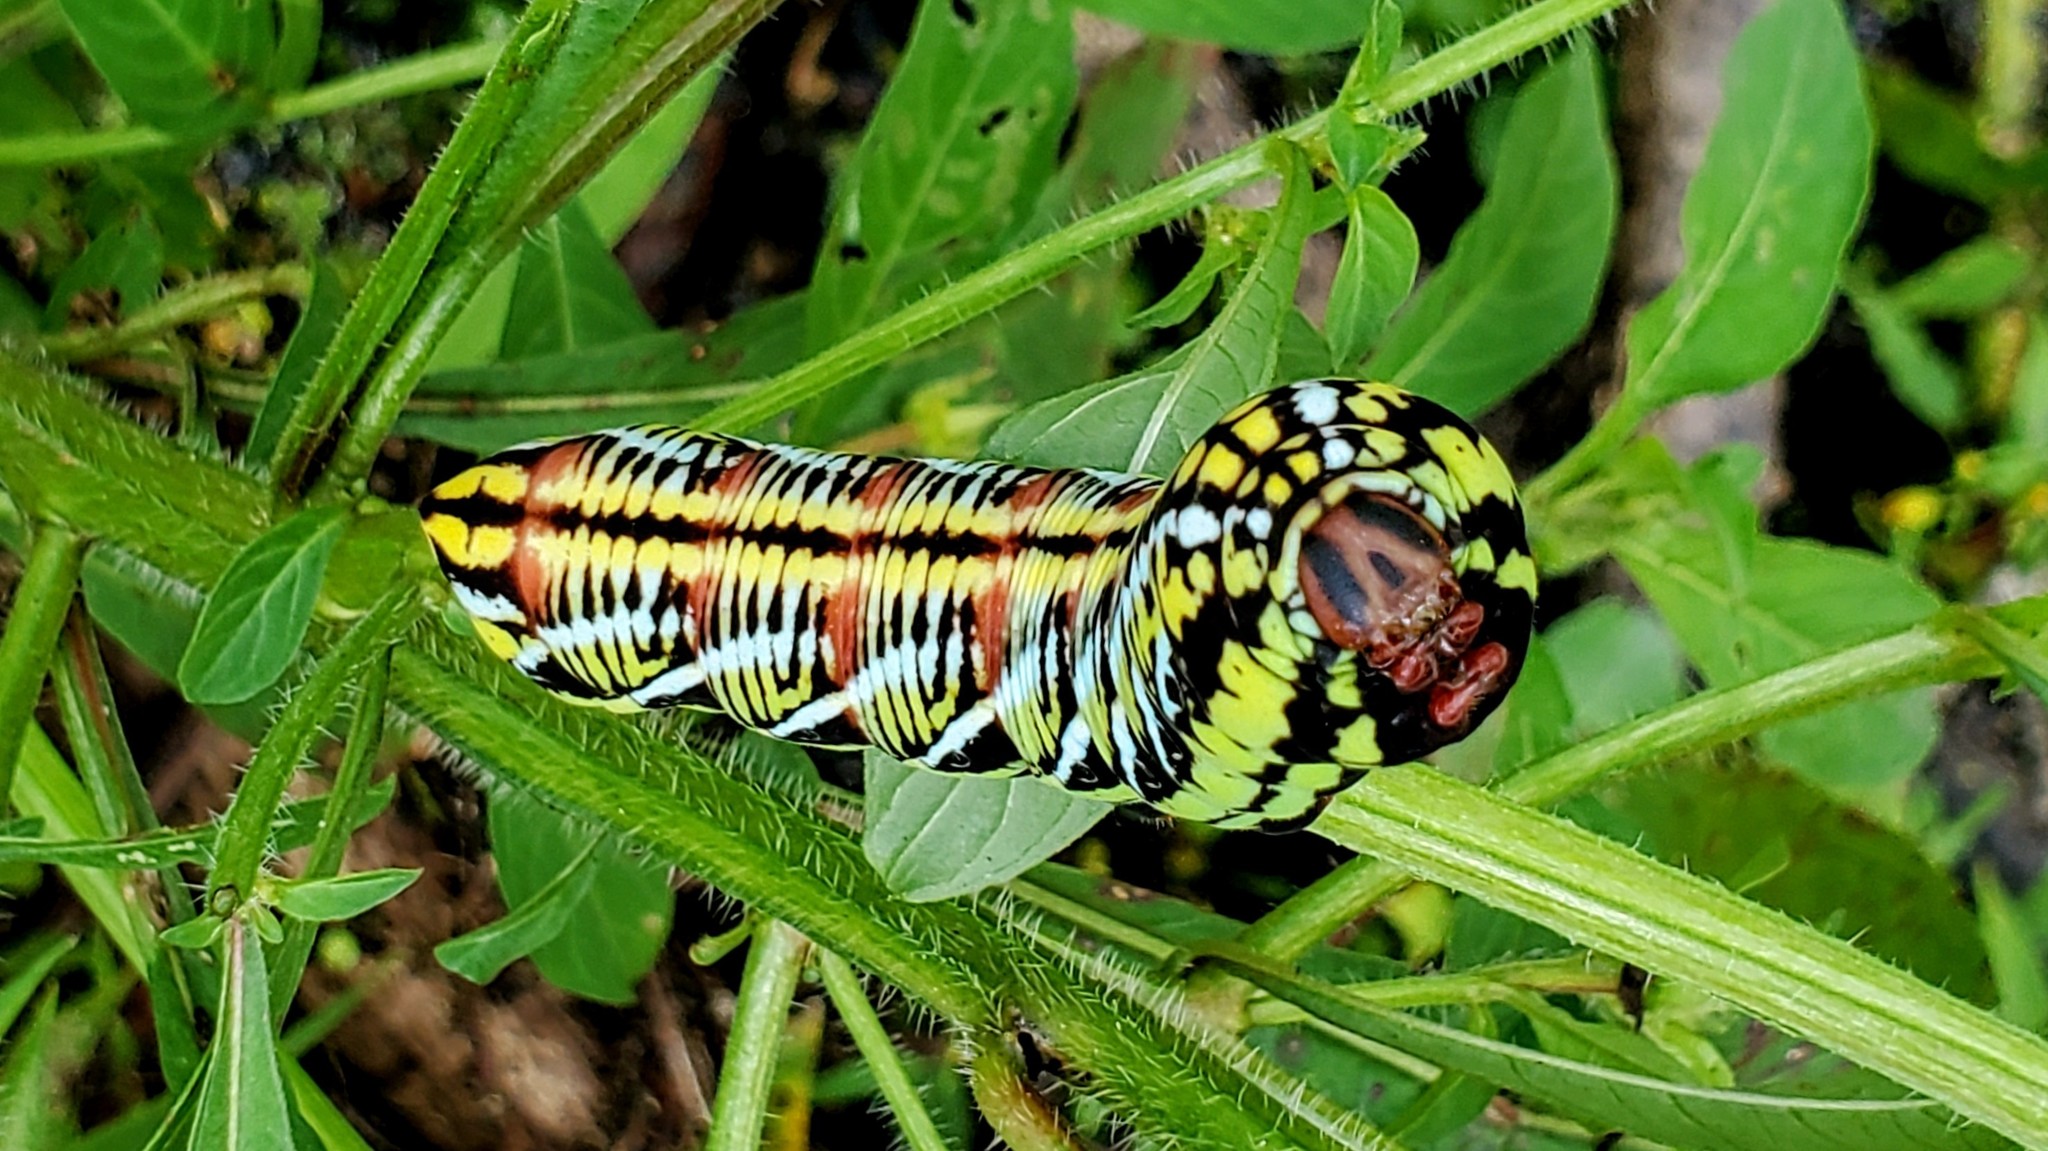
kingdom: Animalia
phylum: Arthropoda
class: Insecta
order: Lepidoptera
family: Sphingidae
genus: Eumorpha
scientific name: Eumorpha fasciatus
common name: Banded sphinx
